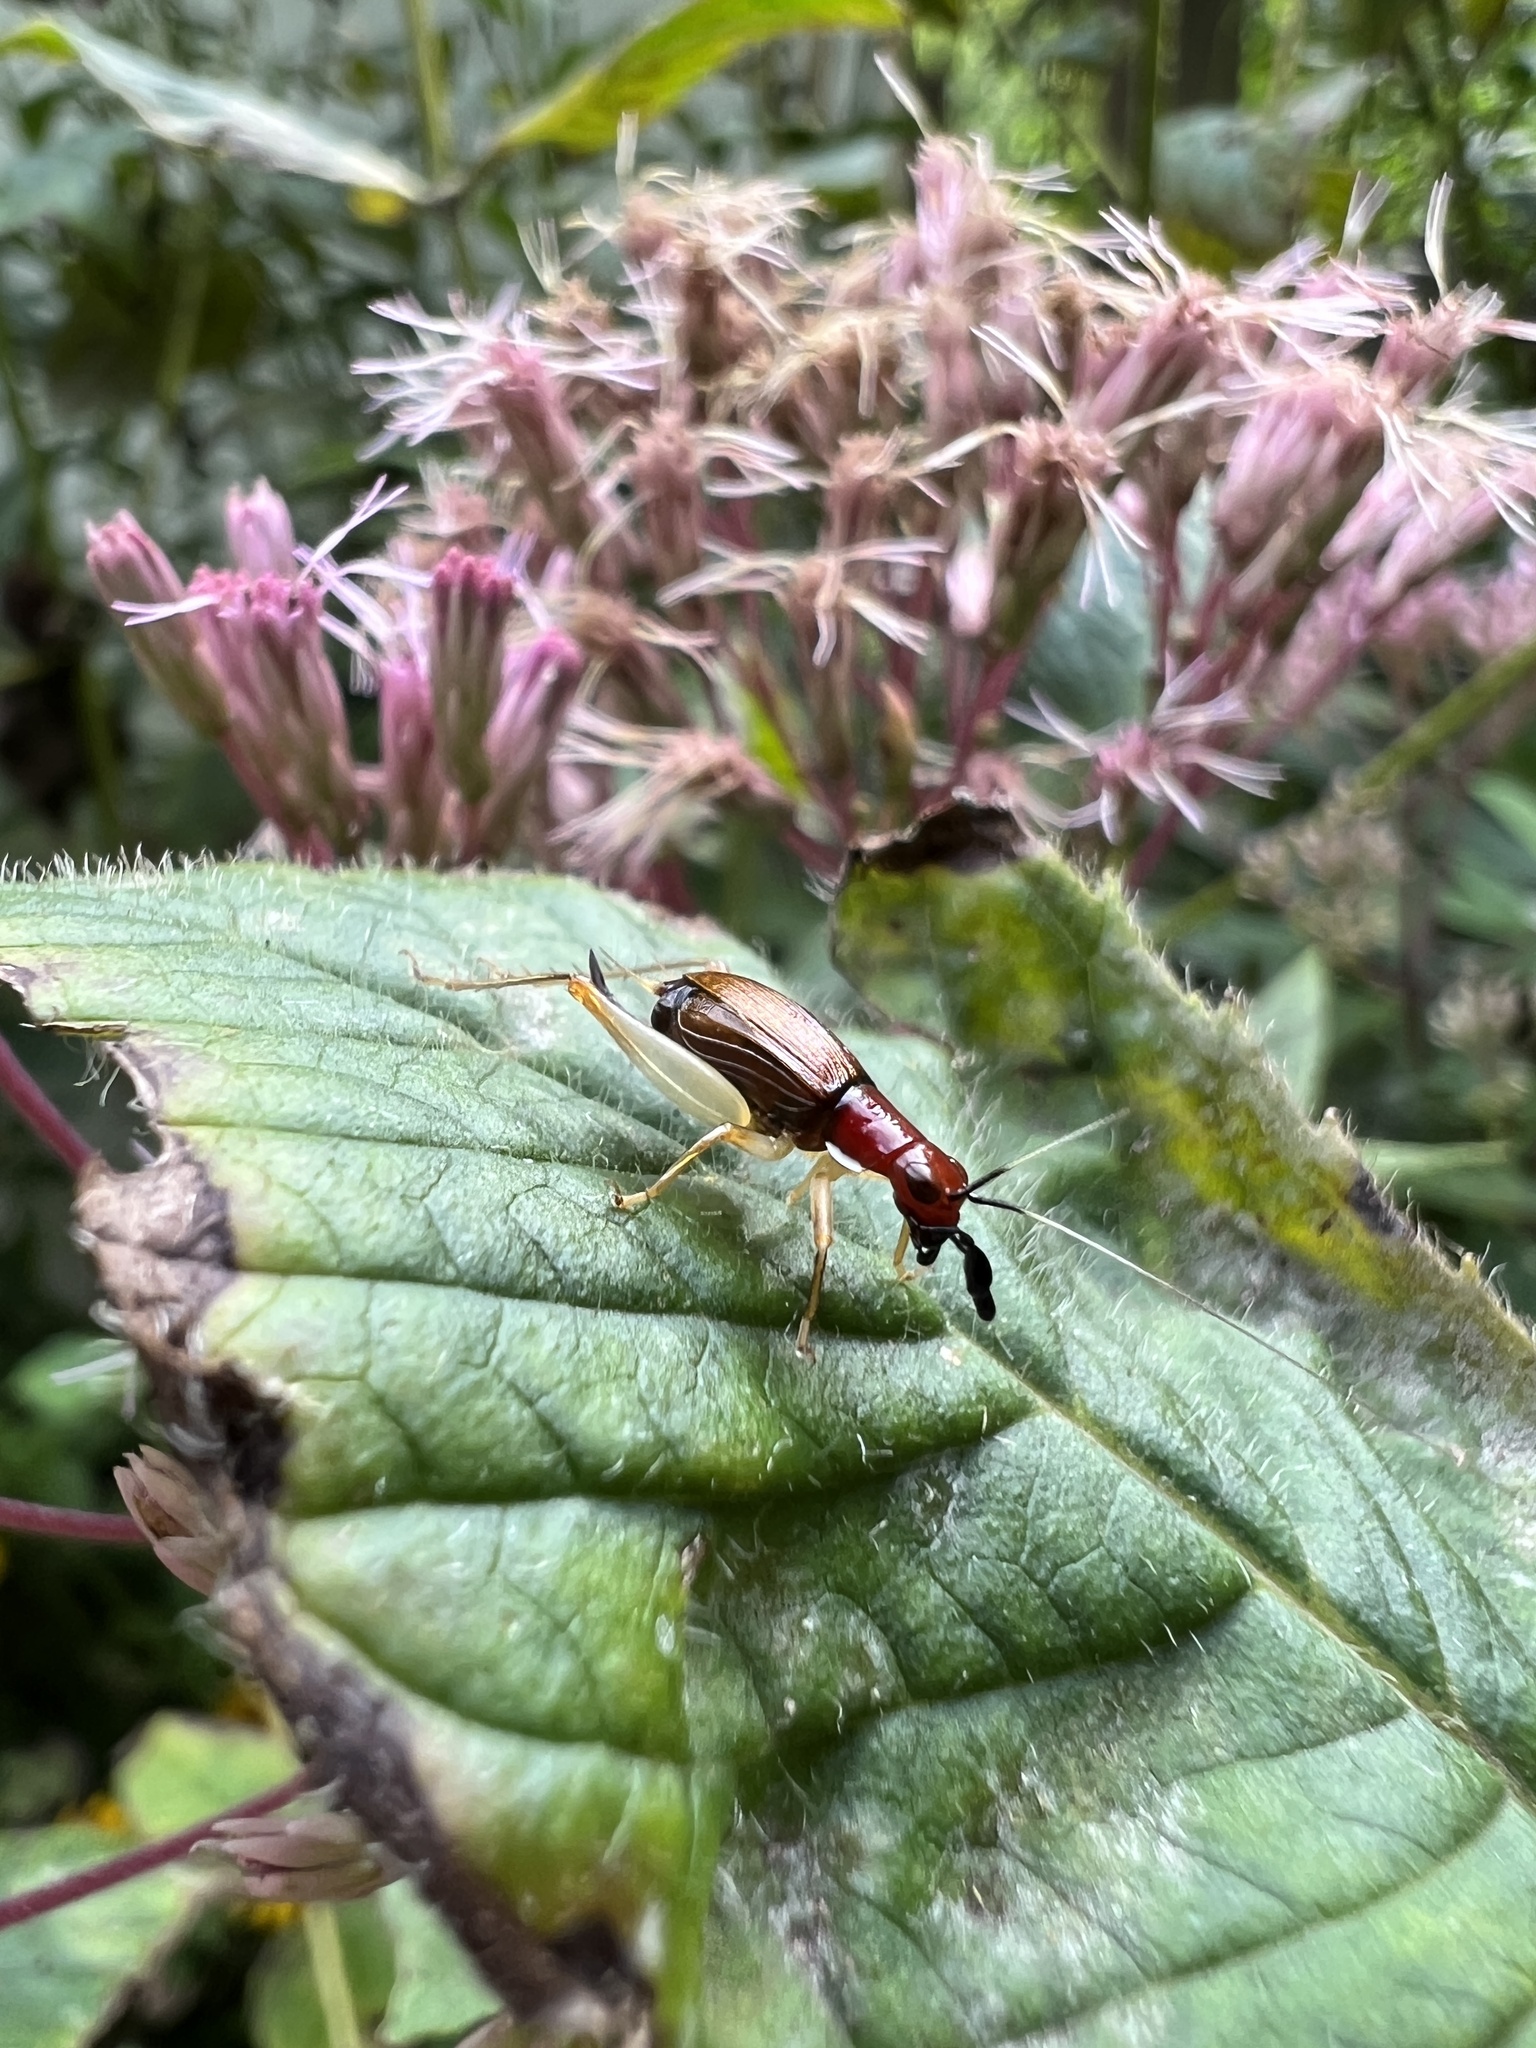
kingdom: Animalia
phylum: Arthropoda
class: Insecta
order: Orthoptera
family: Trigonidiidae
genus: Phyllopalpus
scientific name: Phyllopalpus pulchellus
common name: Handsome trig
